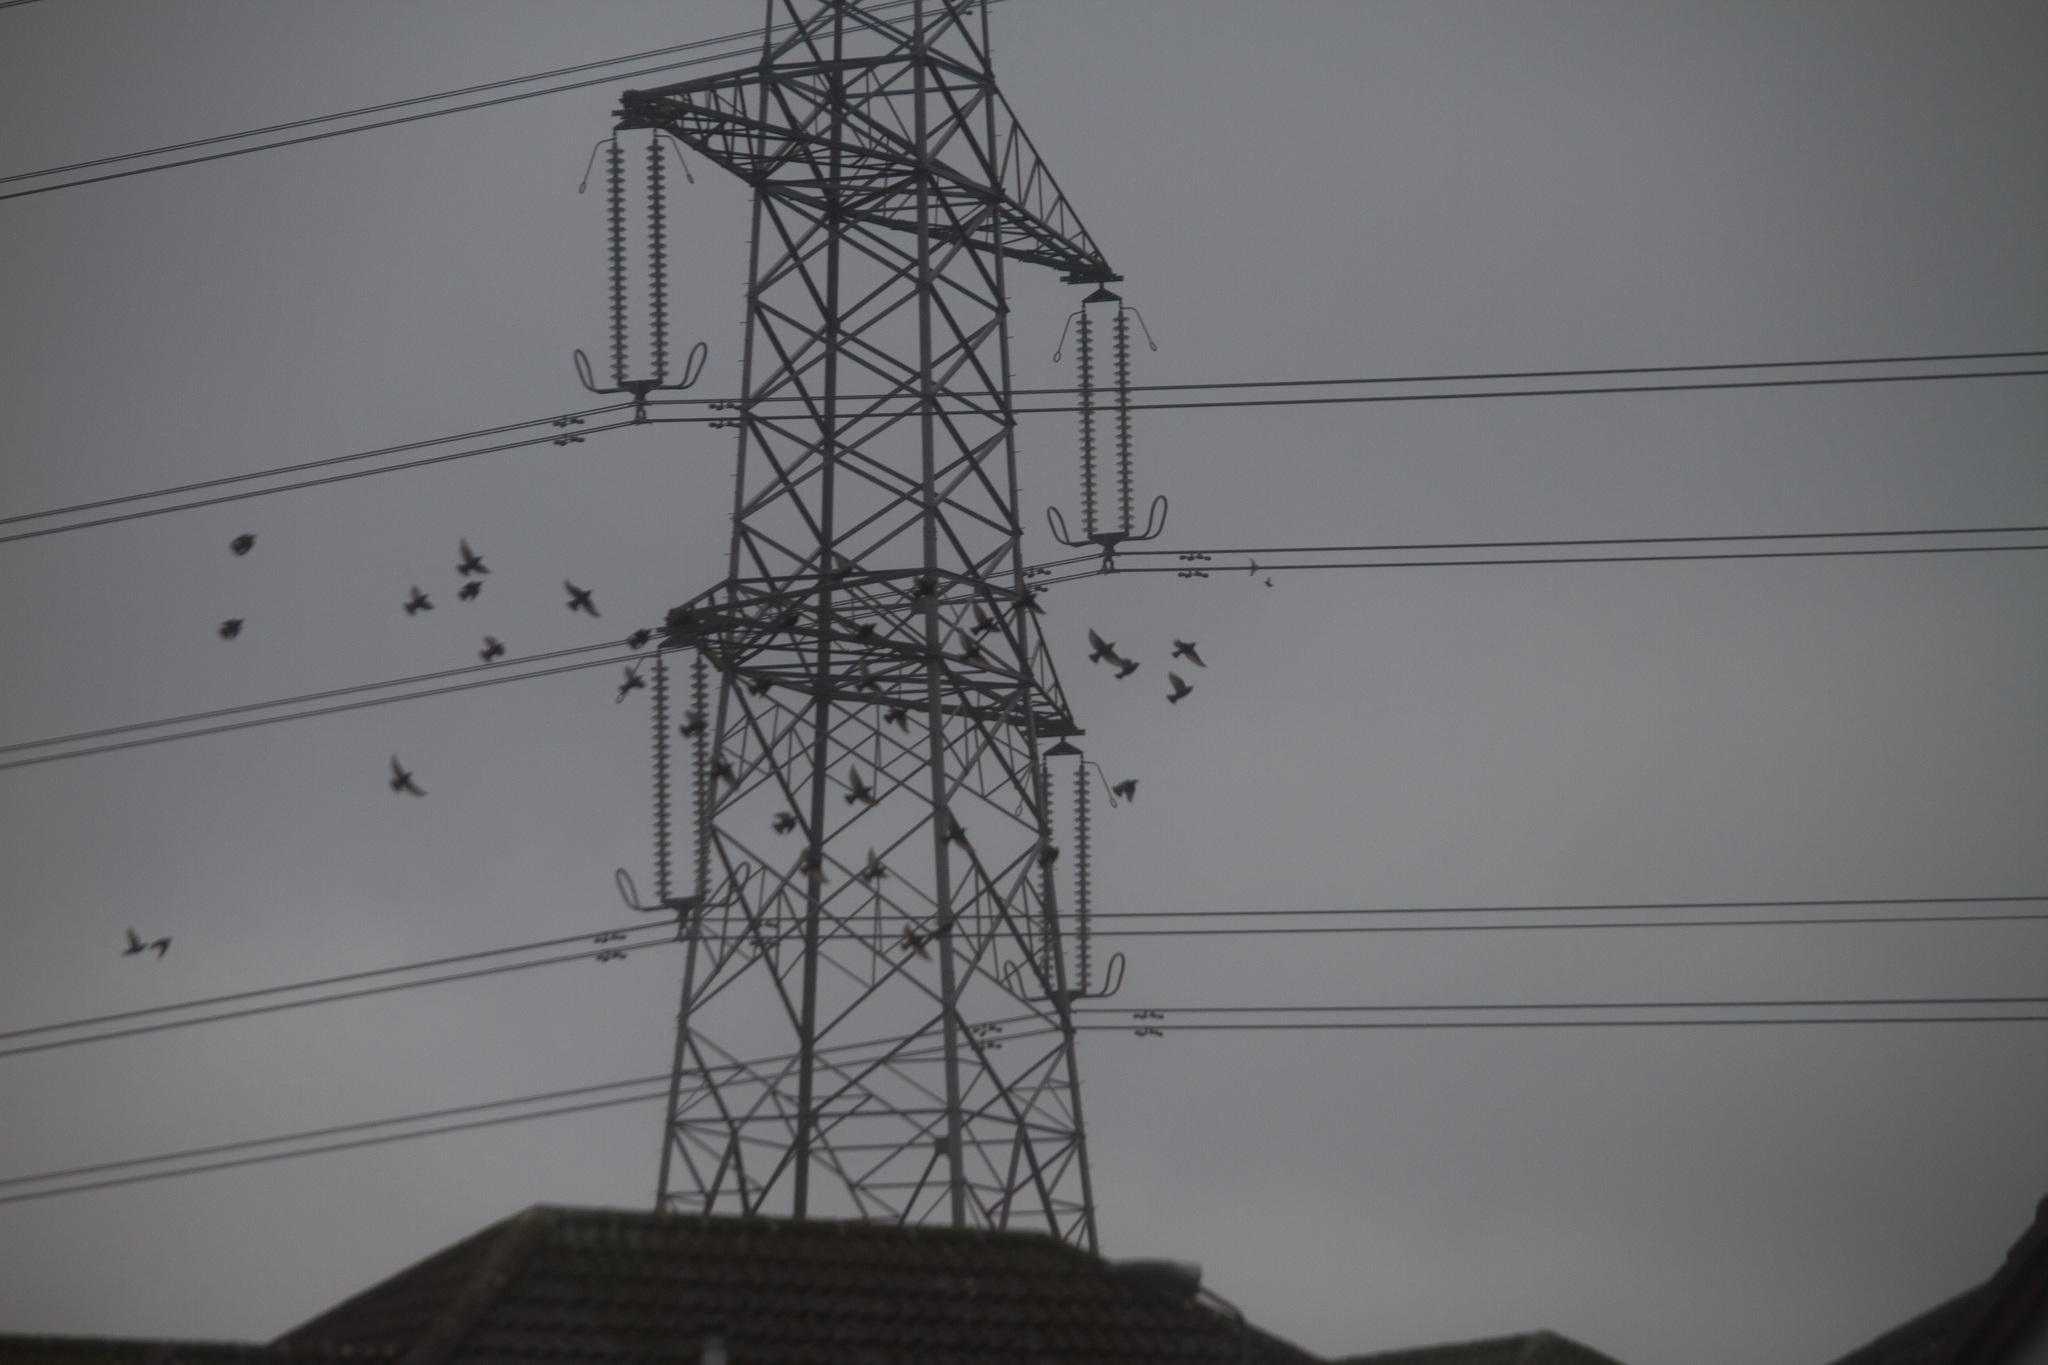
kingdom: Animalia
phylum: Chordata
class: Aves
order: Passeriformes
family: Sturnidae
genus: Sturnus
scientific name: Sturnus vulgaris
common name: Common starling
